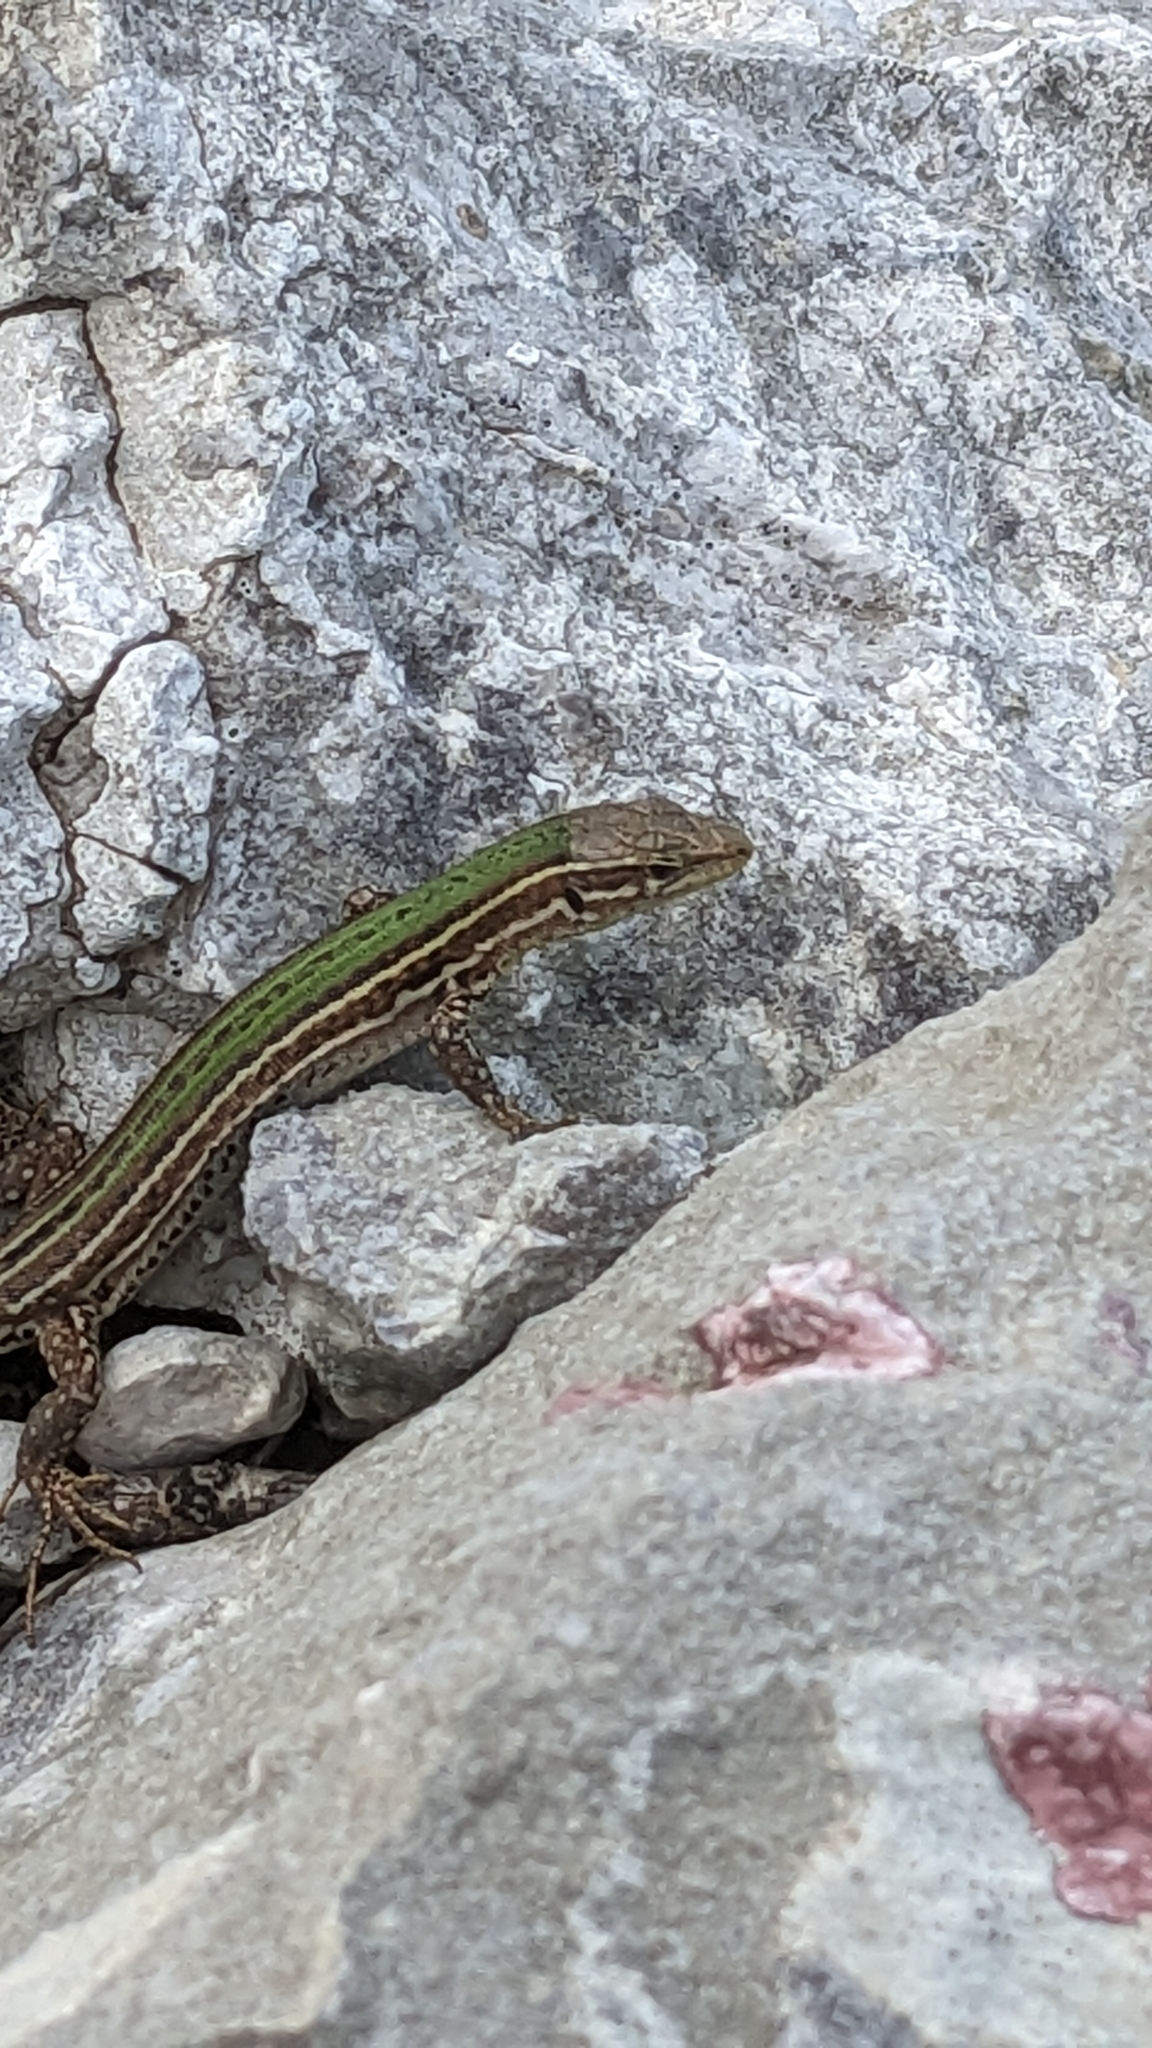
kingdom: Animalia
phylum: Chordata
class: Squamata
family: Lacertidae
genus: Podarcis
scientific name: Podarcis melisellensis
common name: Dalmatian wall lizard
